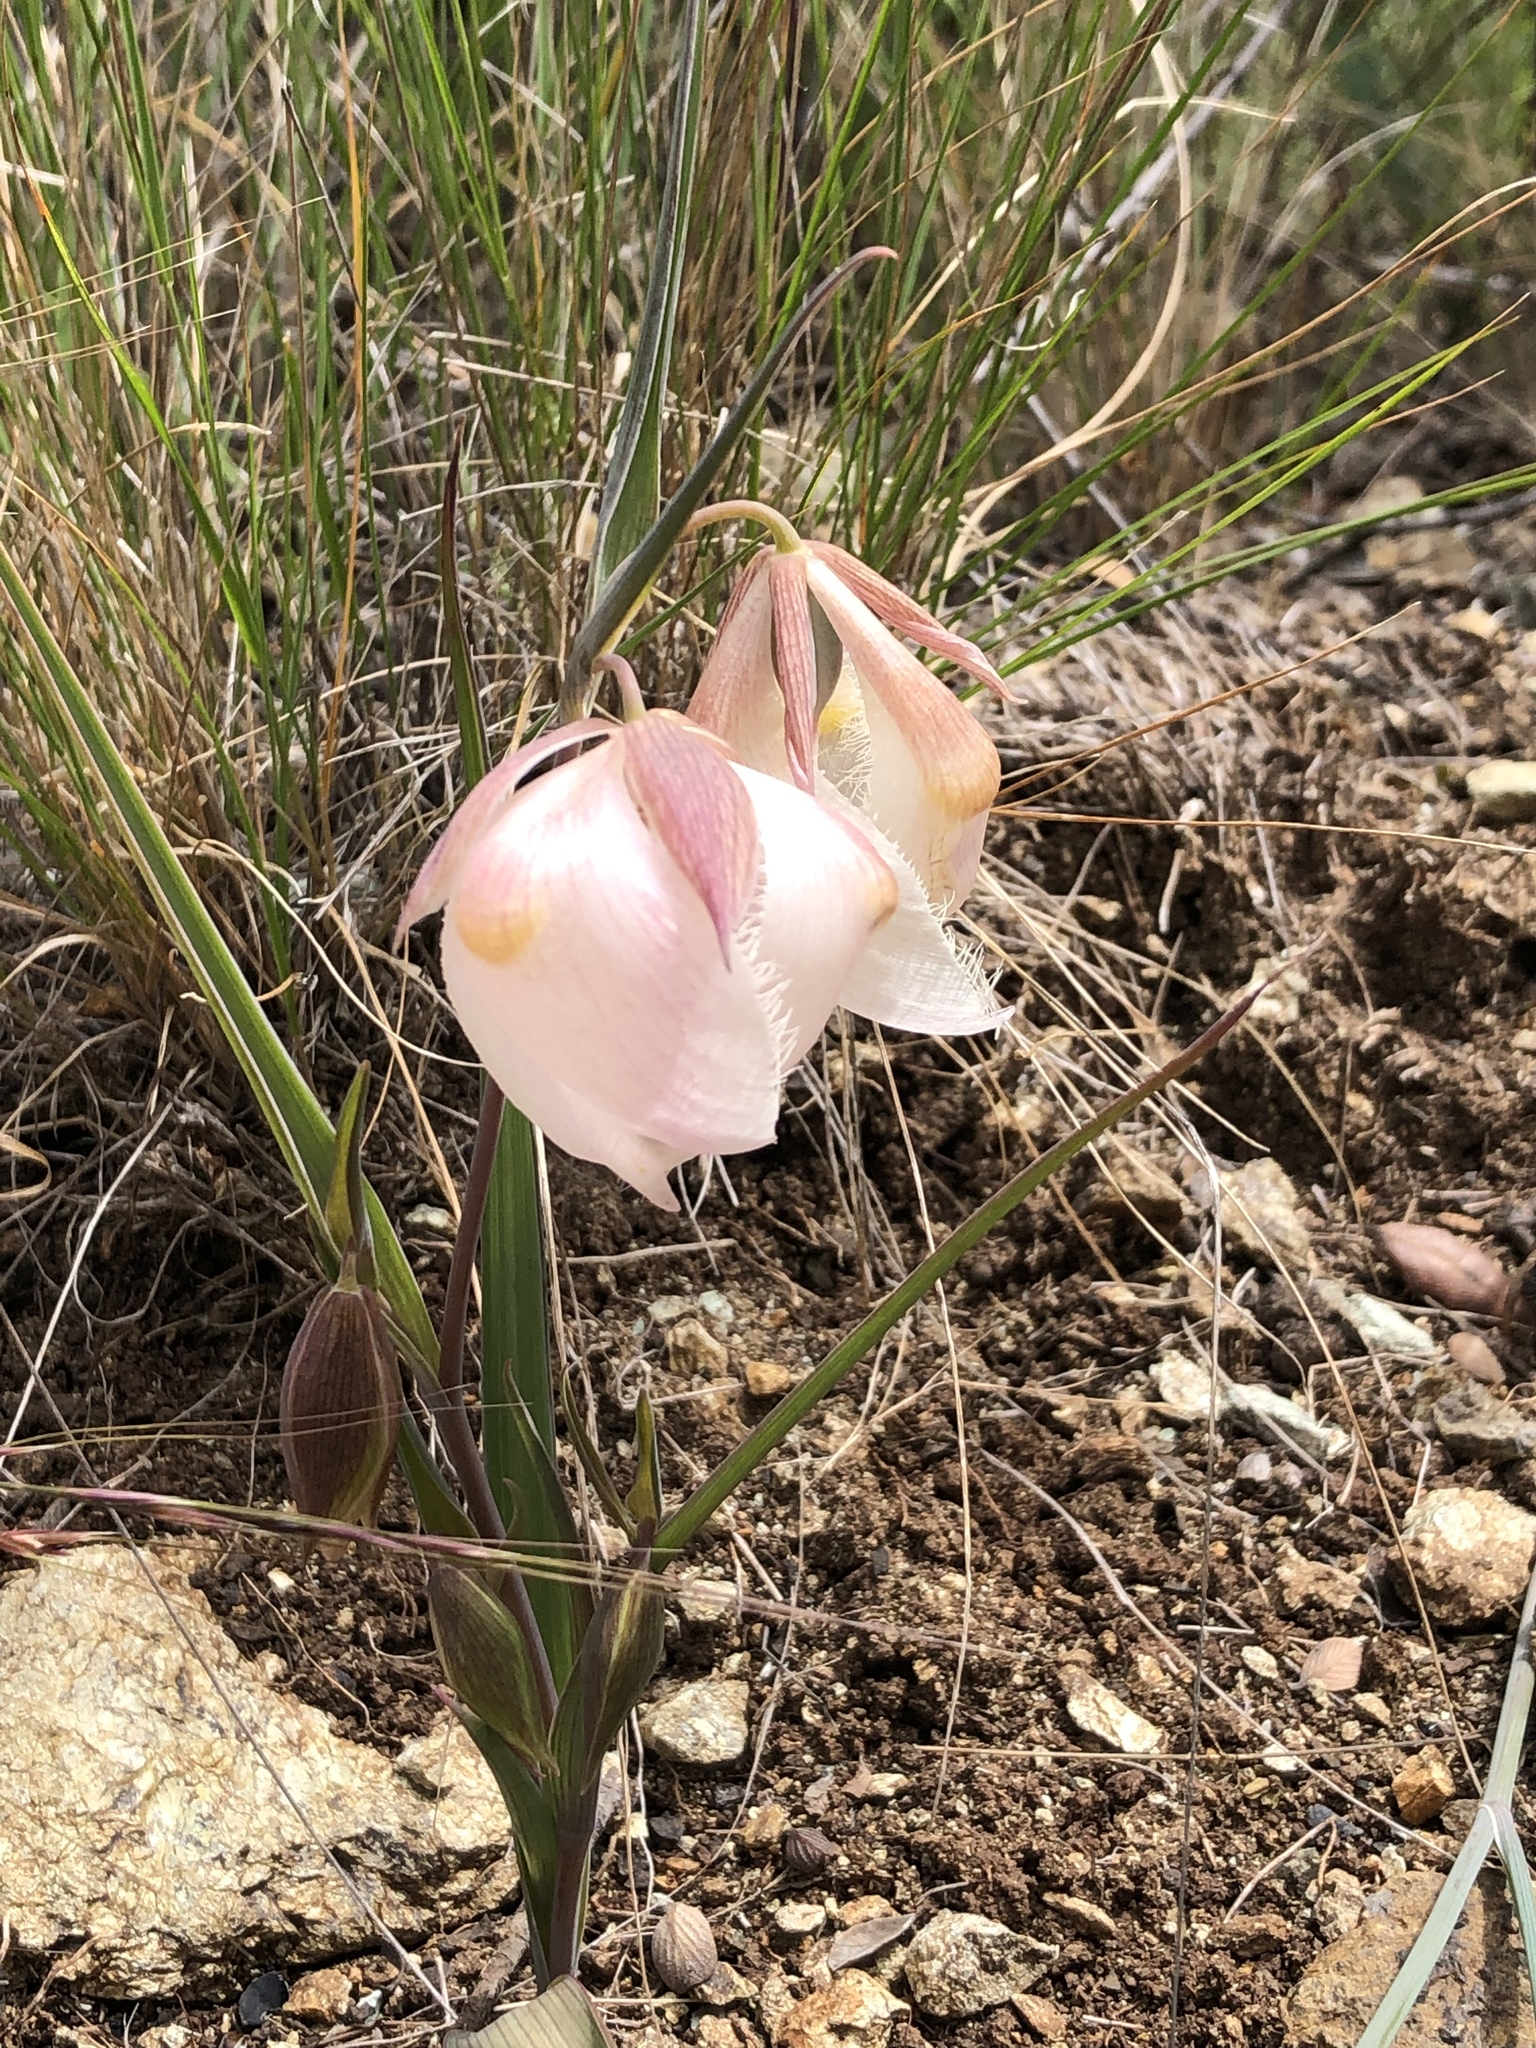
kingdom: Plantae
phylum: Tracheophyta
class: Liliopsida
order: Liliales
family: Liliaceae
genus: Calochortus
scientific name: Calochortus albus
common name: Fairy-lantern
